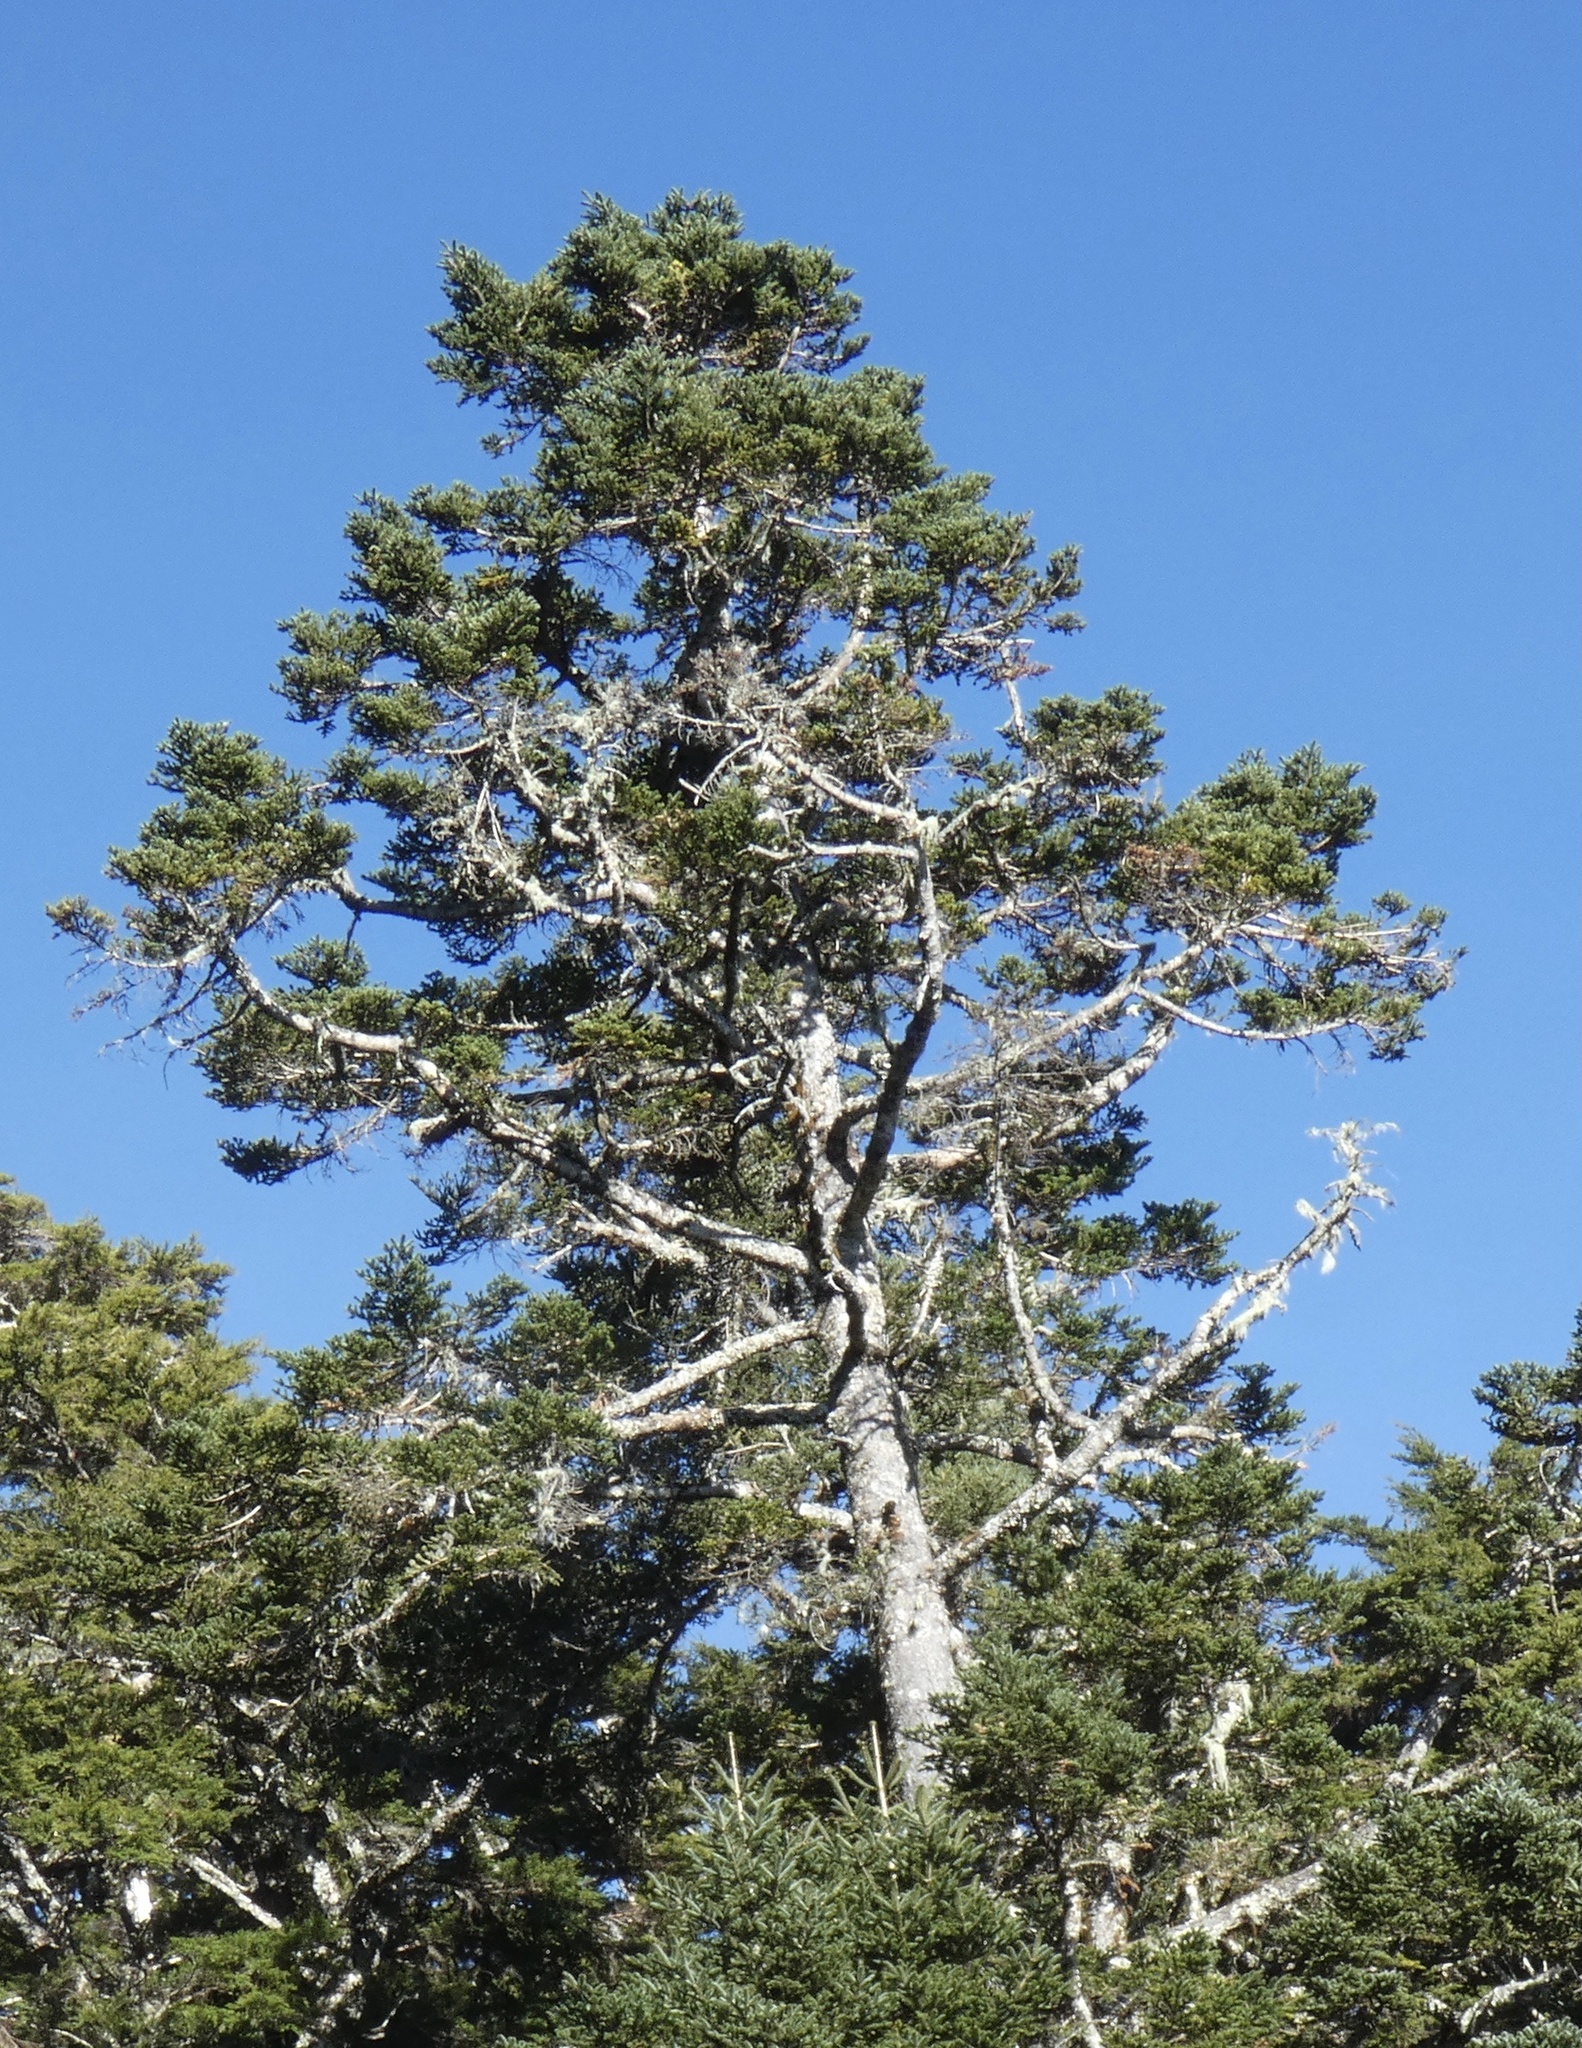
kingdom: Plantae
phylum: Tracheophyta
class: Pinopsida
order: Pinales
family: Pinaceae
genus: Abies
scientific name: Abies kawakamii
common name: Taiwan fir
